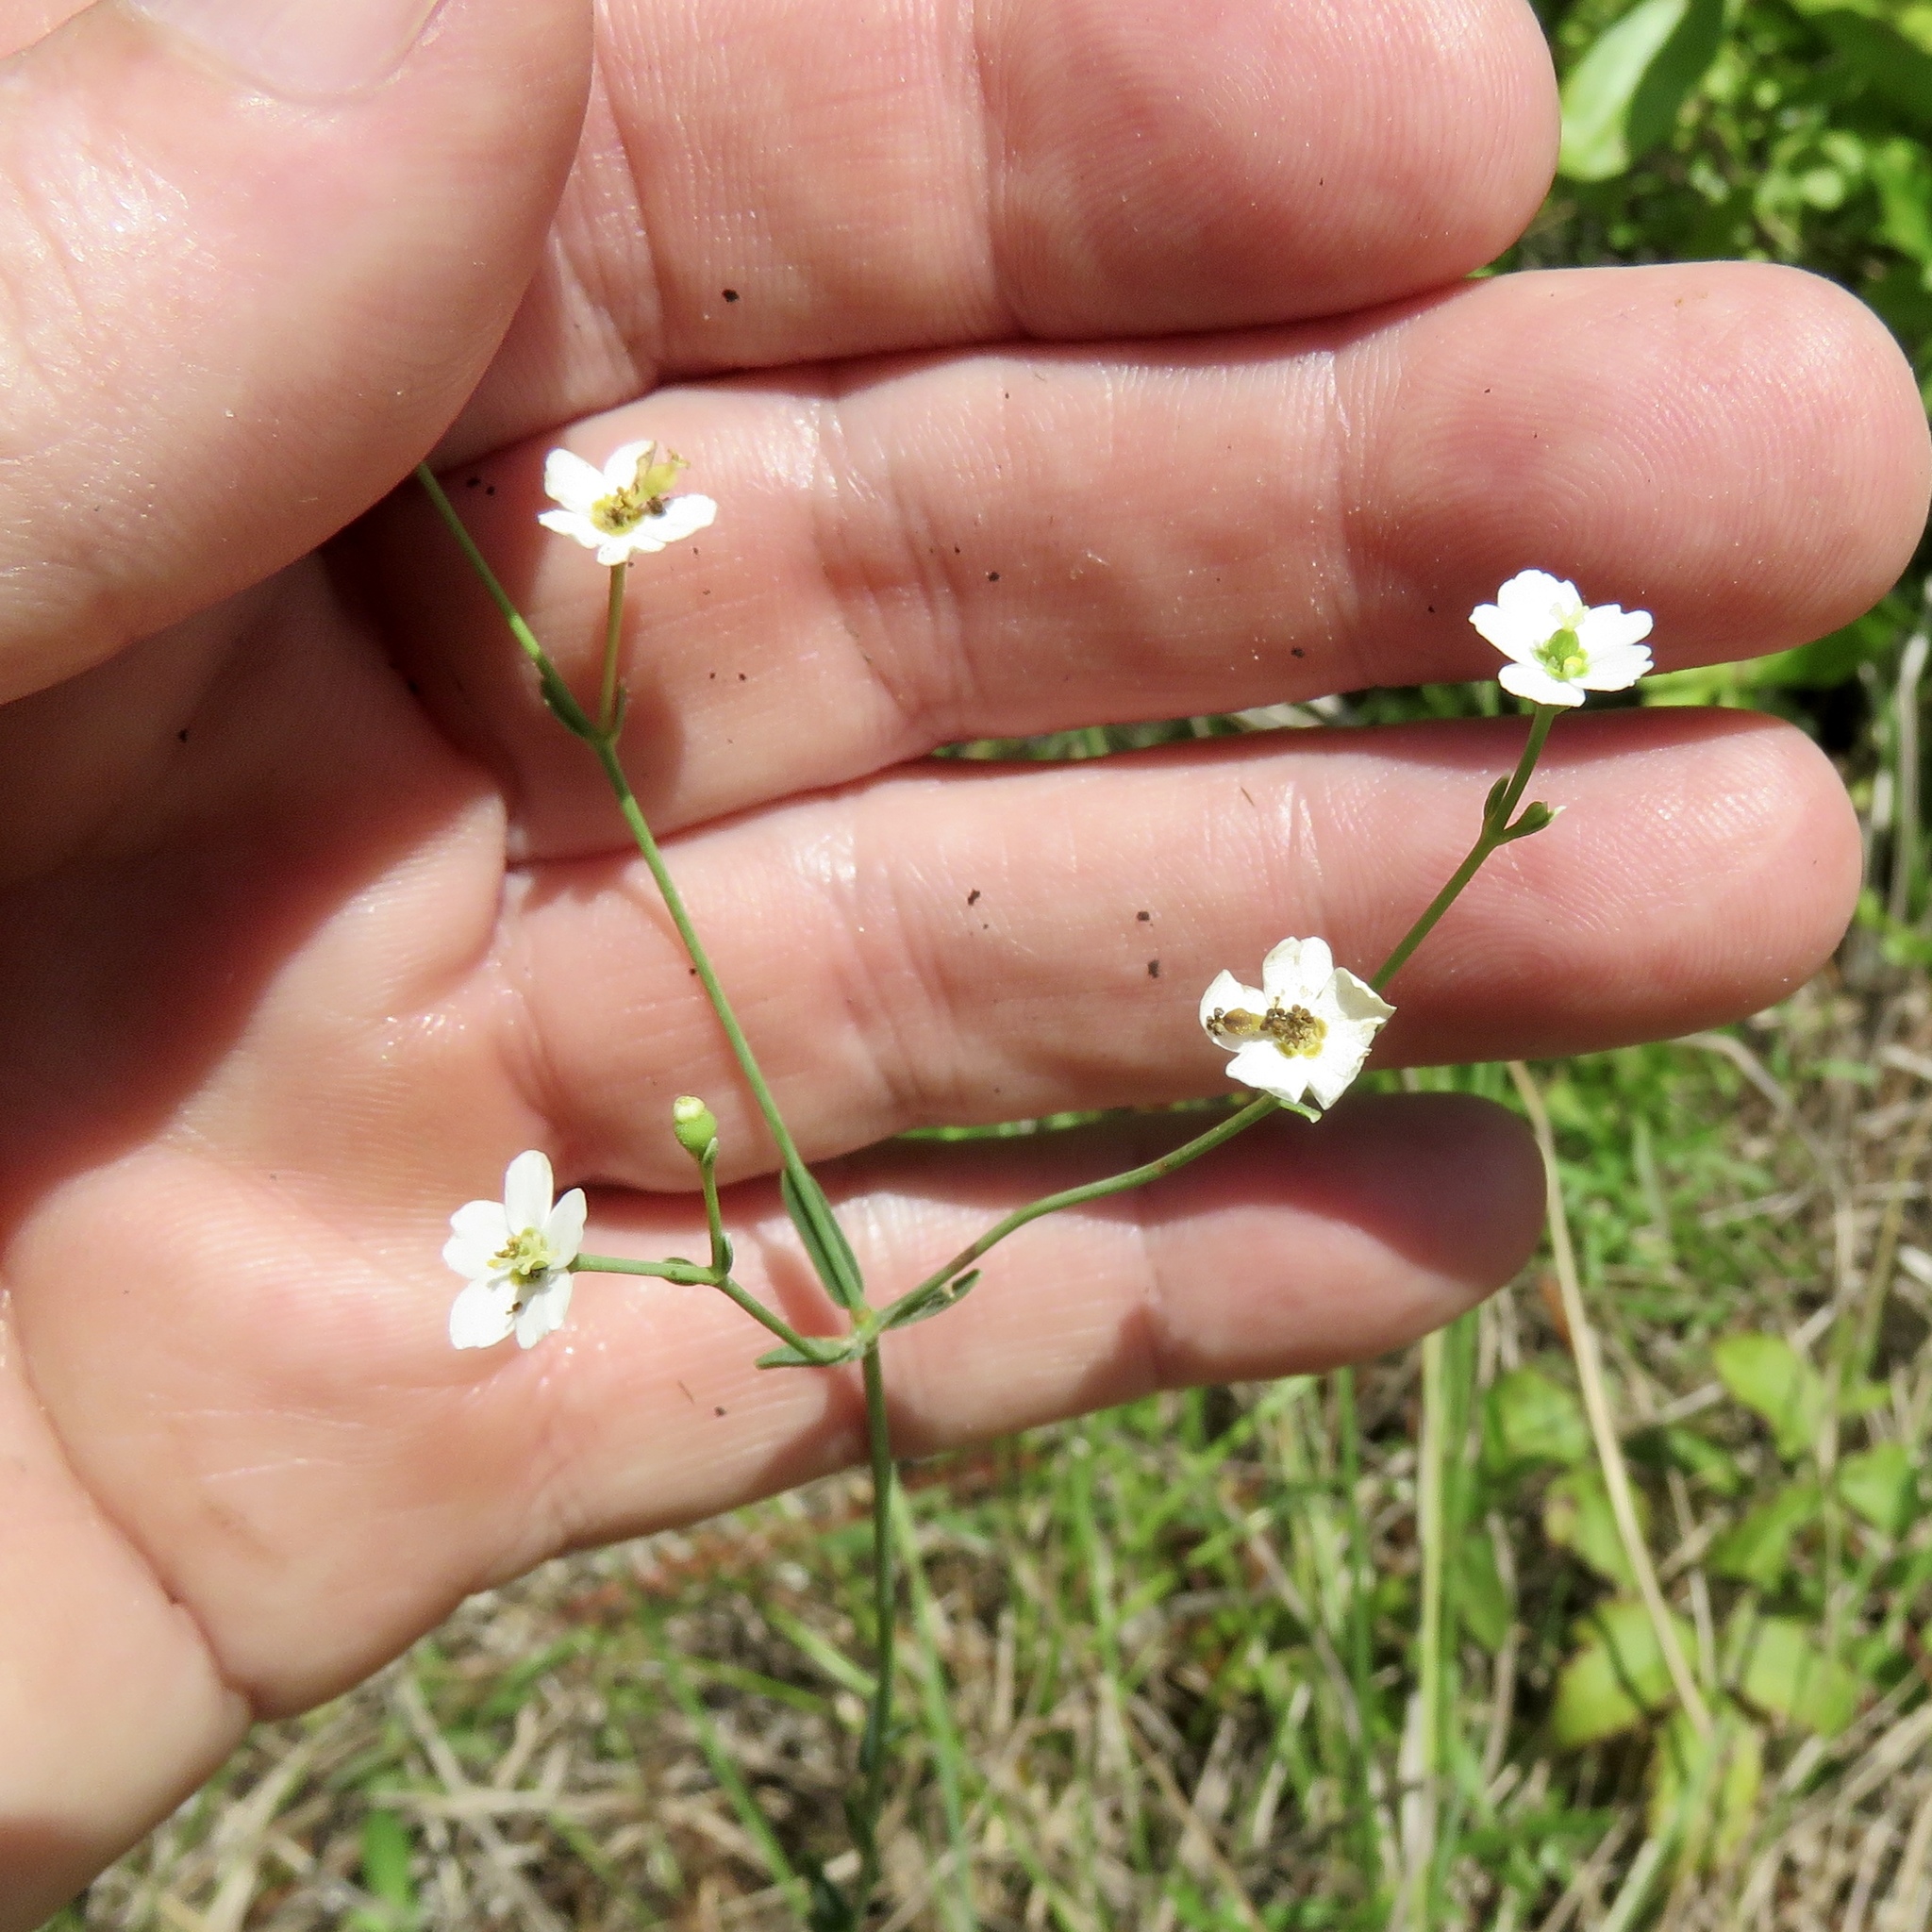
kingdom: Plantae
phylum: Tracheophyta
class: Magnoliopsida
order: Malpighiales
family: Euphorbiaceae
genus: Euphorbia
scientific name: Euphorbia corollata
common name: Flowering spurge
